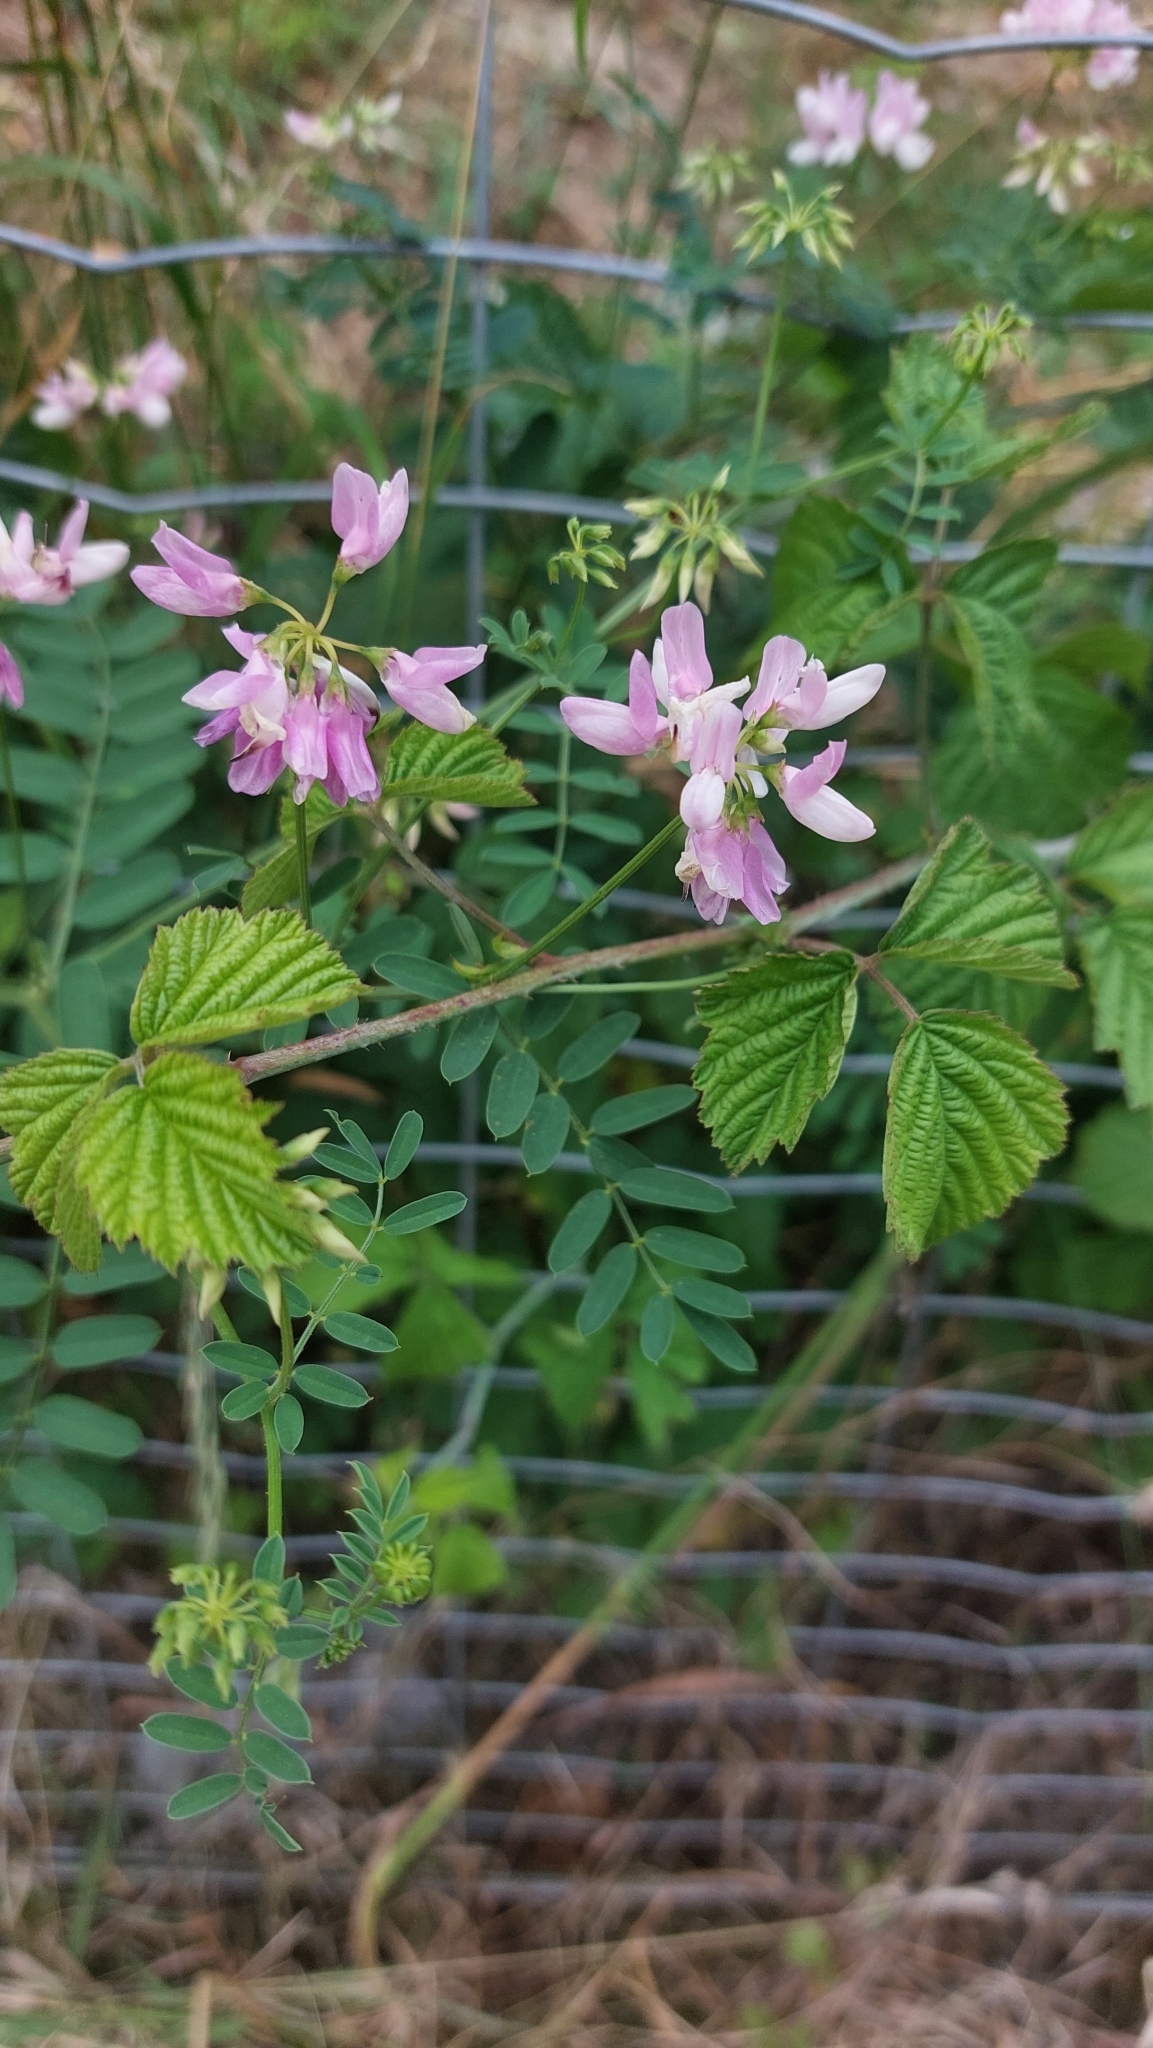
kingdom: Plantae
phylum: Tracheophyta
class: Magnoliopsida
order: Fabales
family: Fabaceae
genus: Coronilla
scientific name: Coronilla varia
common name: Crownvetch
